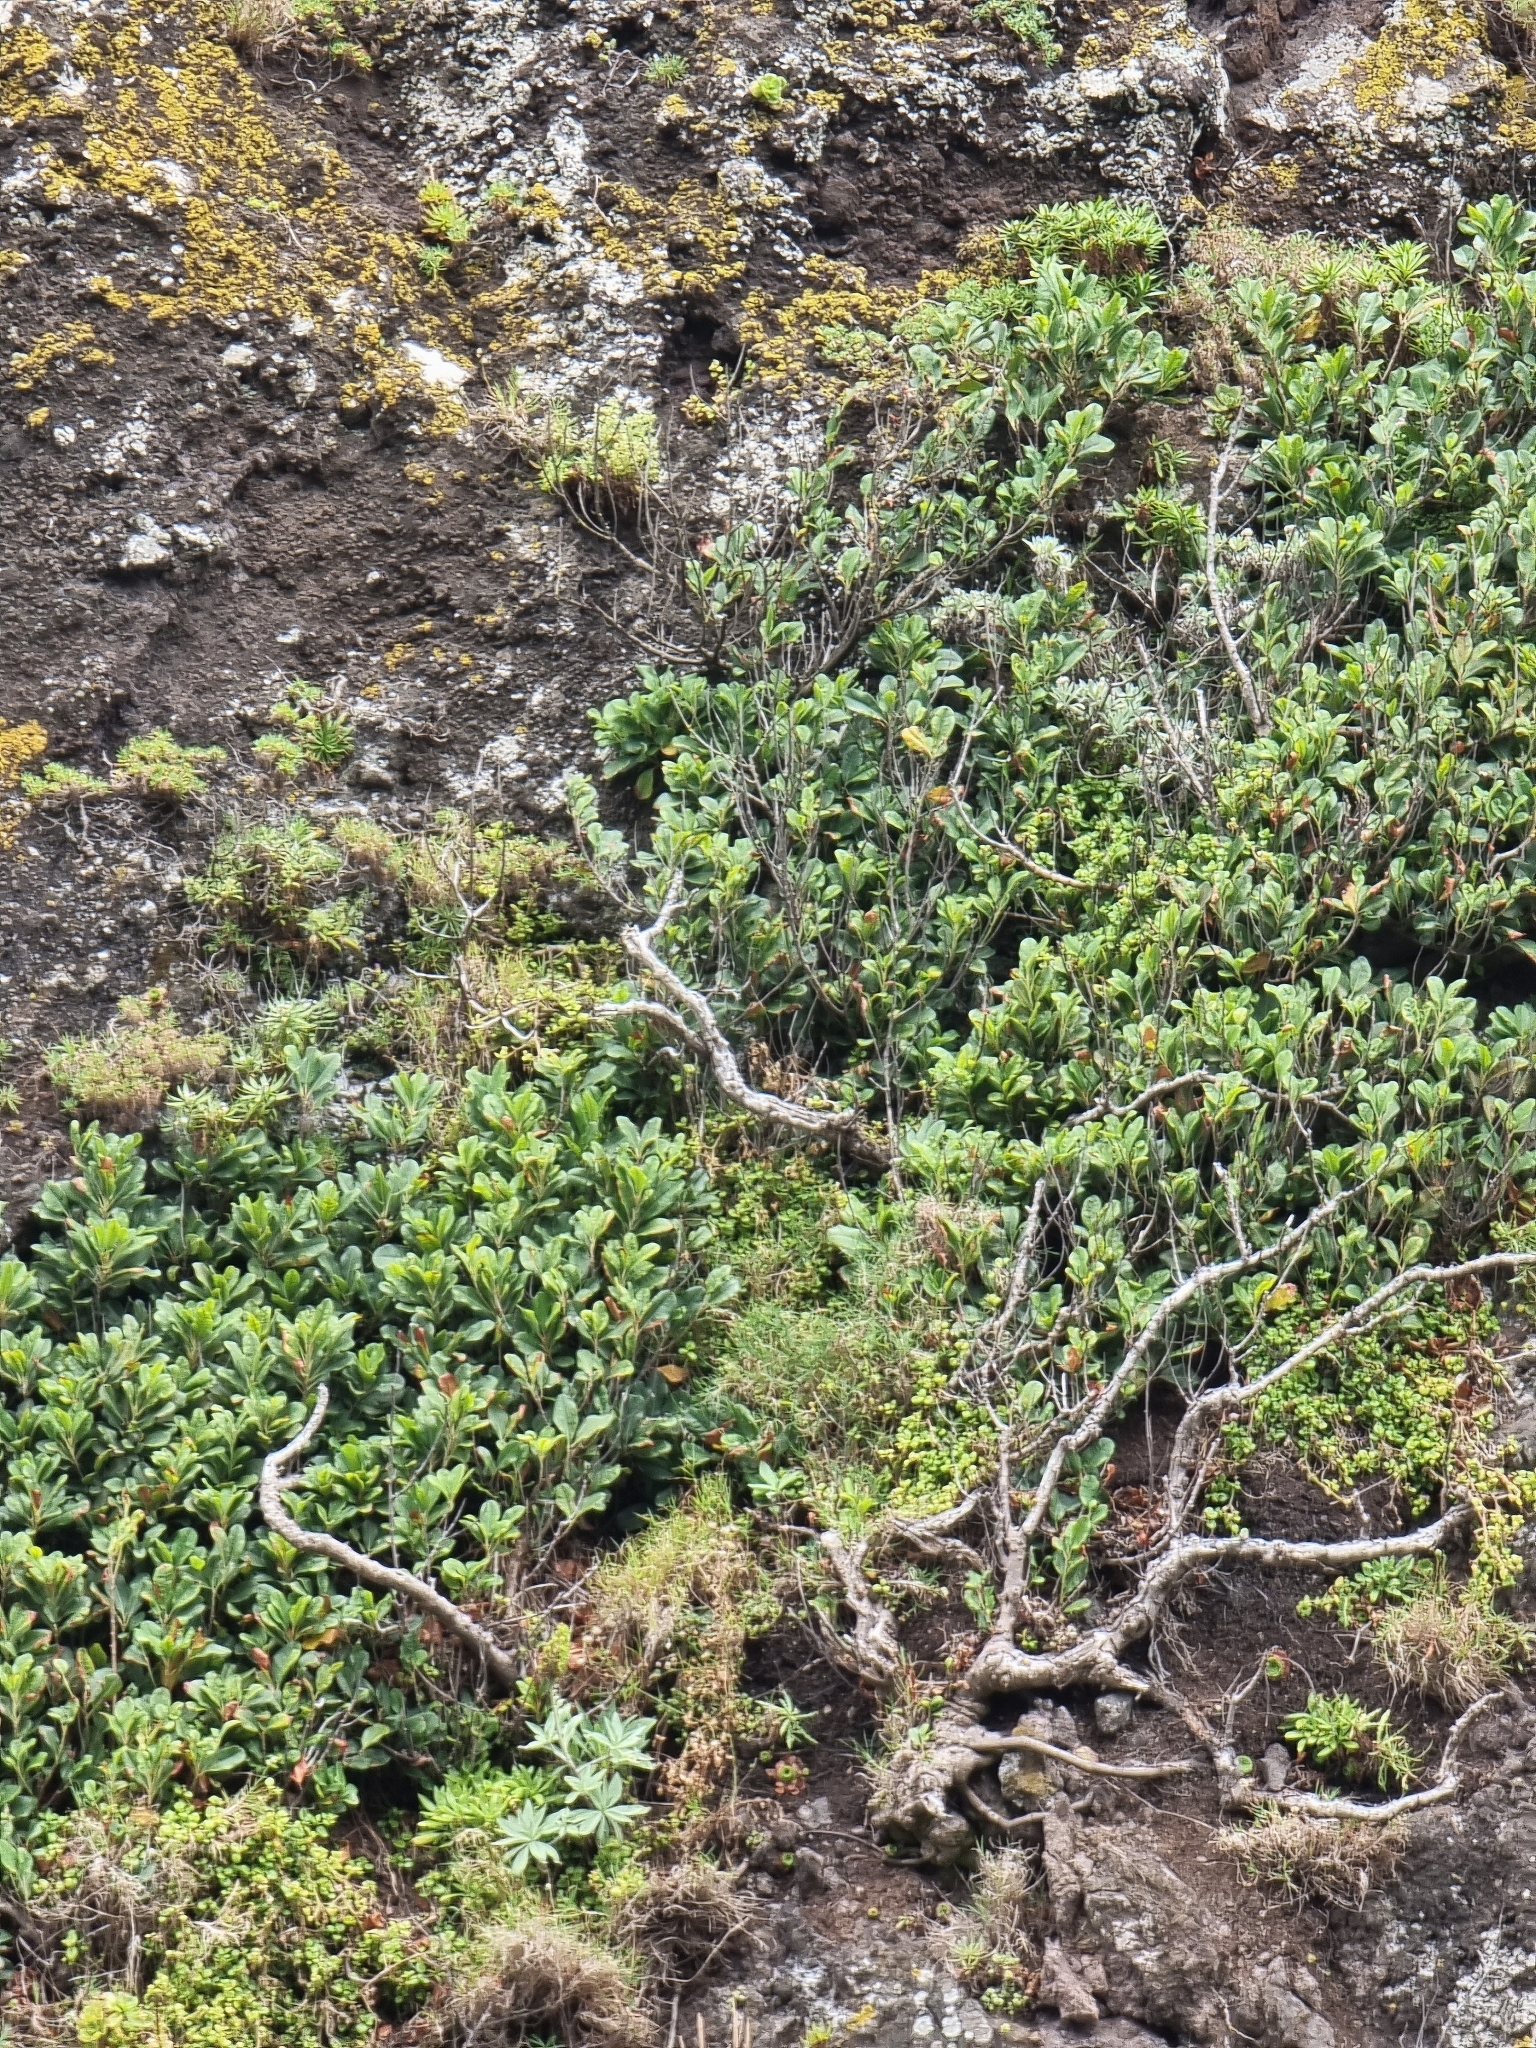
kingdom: Plantae
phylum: Tracheophyta
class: Magnoliopsida
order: Ericales
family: Sapotaceae
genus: Sideroxylon
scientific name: Sideroxylon mirmulans
